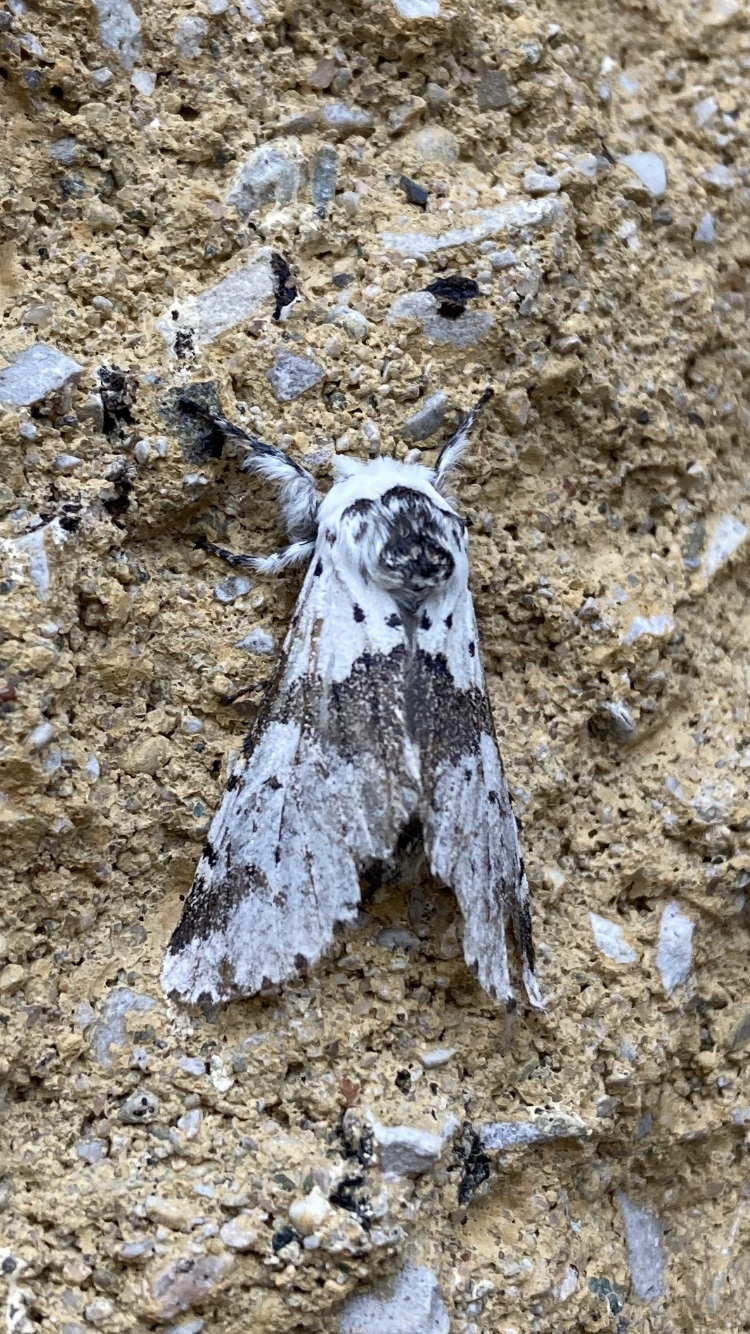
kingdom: Animalia
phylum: Arthropoda
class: Insecta
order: Lepidoptera
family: Notodontidae
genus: Furcula
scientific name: Furcula borealis
